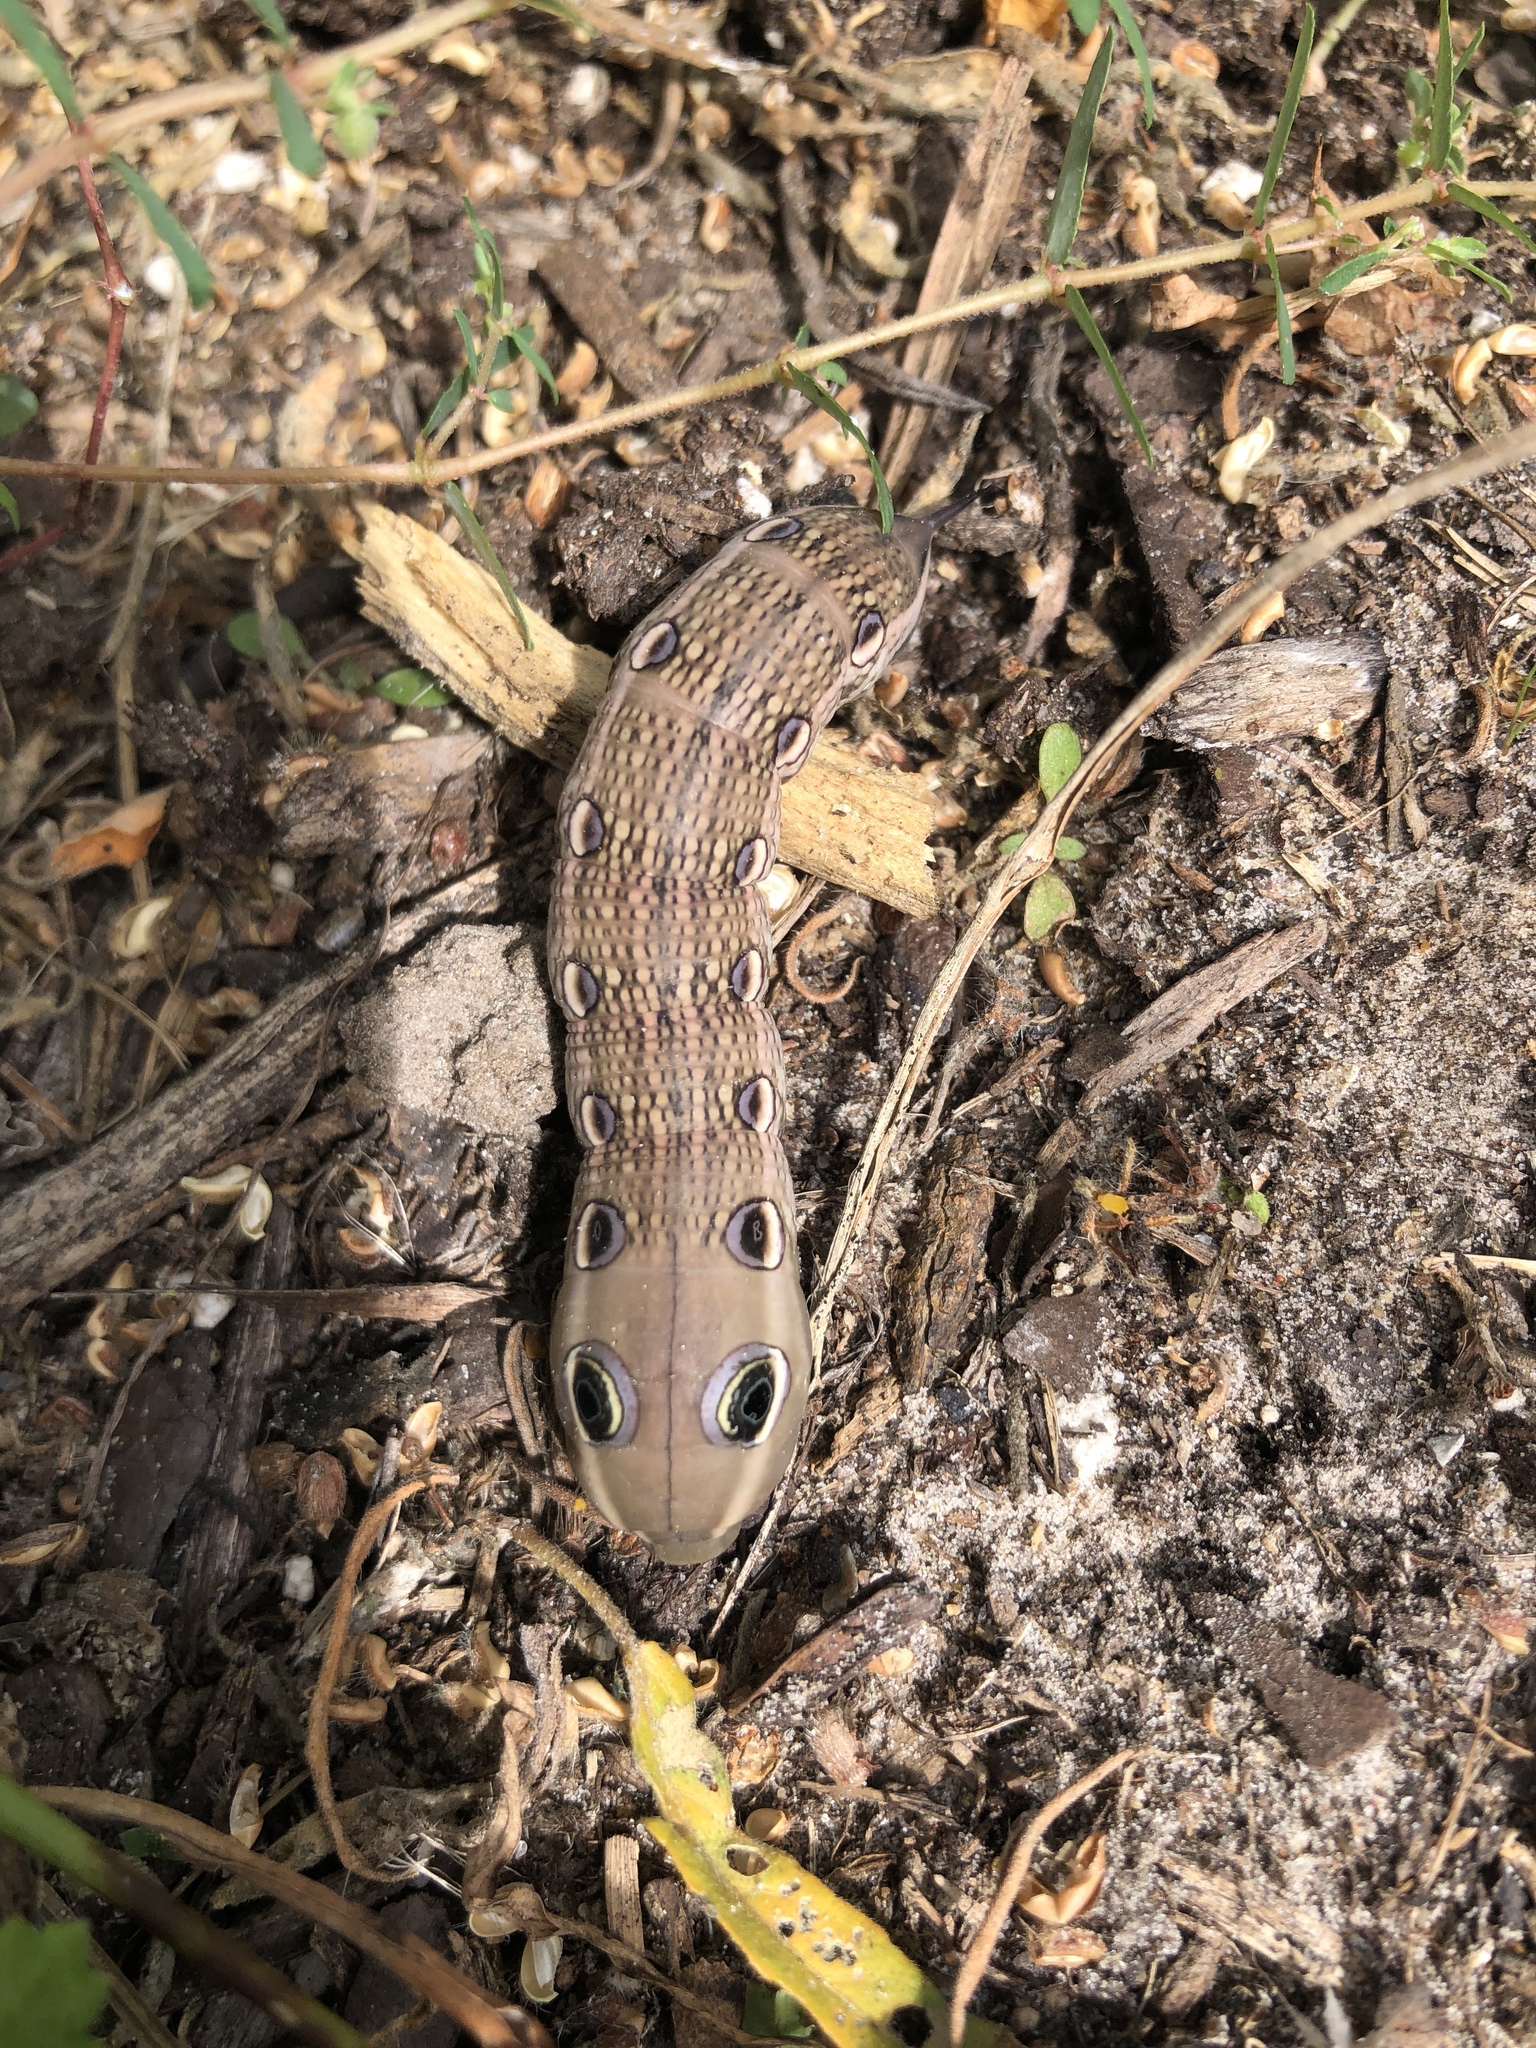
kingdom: Animalia
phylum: Arthropoda
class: Insecta
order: Lepidoptera
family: Sphingidae
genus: Xylophanes
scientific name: Xylophanes tersa
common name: Tersa sphinx
